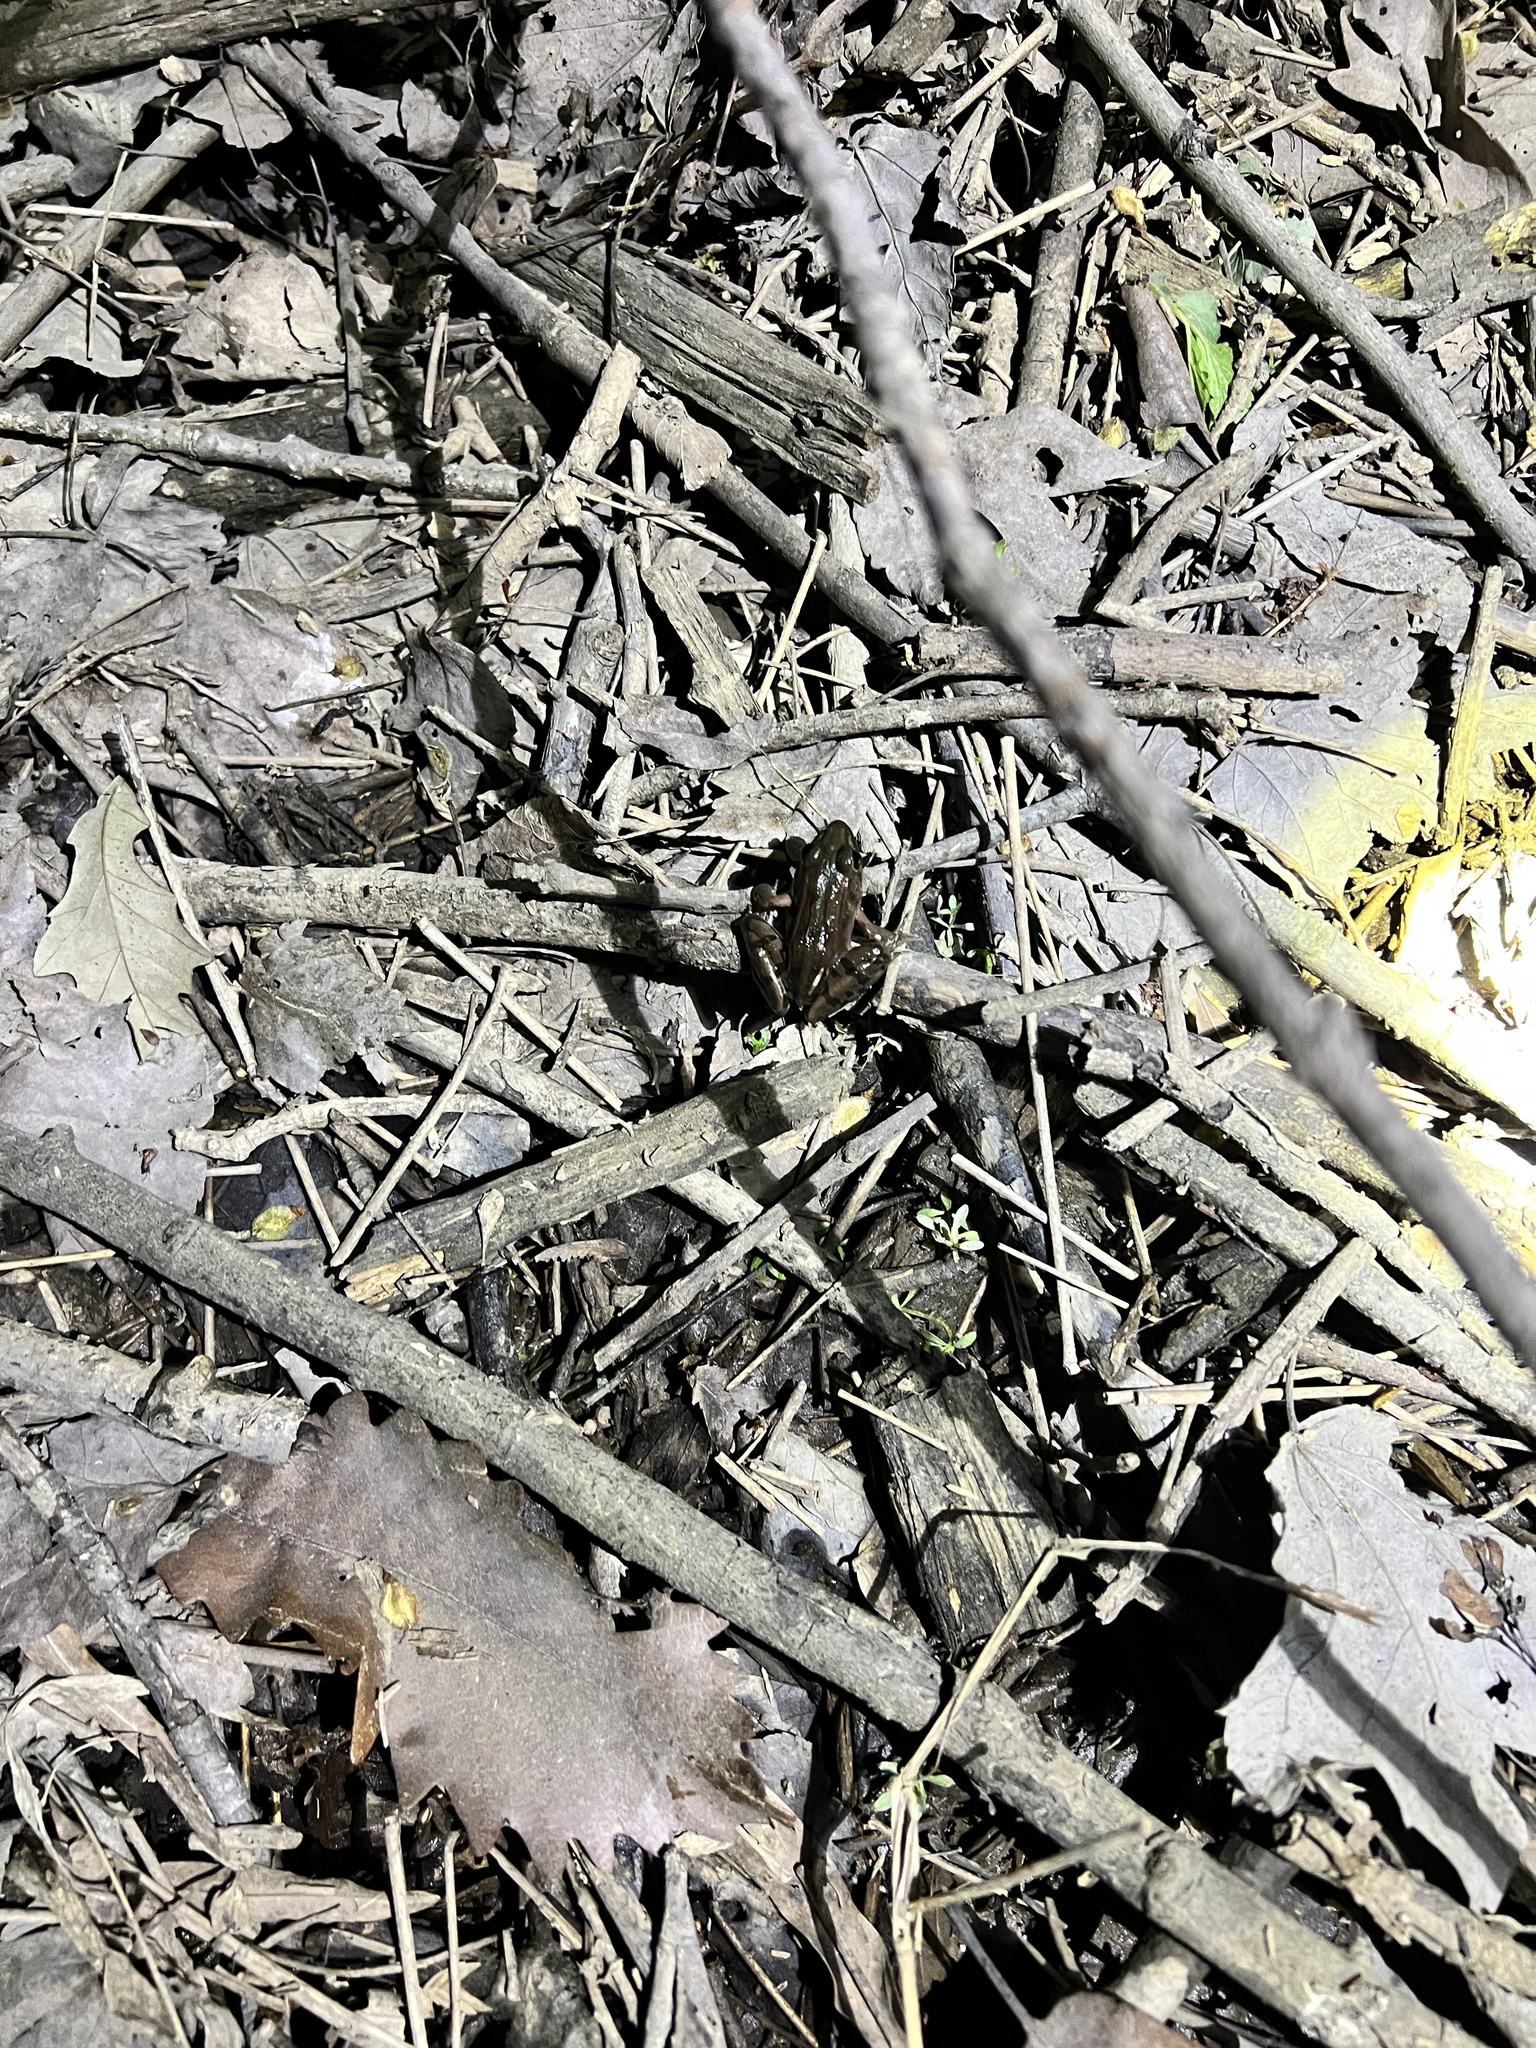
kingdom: Animalia
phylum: Chordata
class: Amphibia
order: Anura
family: Ranidae
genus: Lithobates
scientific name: Lithobates sphenocephalus
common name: Southern leopard frog
